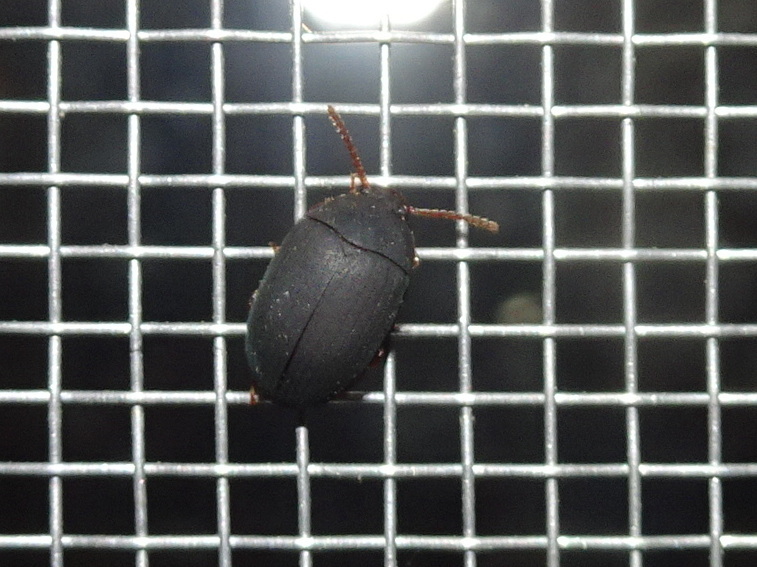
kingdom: Animalia
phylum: Arthropoda
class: Insecta
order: Coleoptera
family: Tenebrionidae
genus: Platydema
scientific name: Platydema ruficornis
